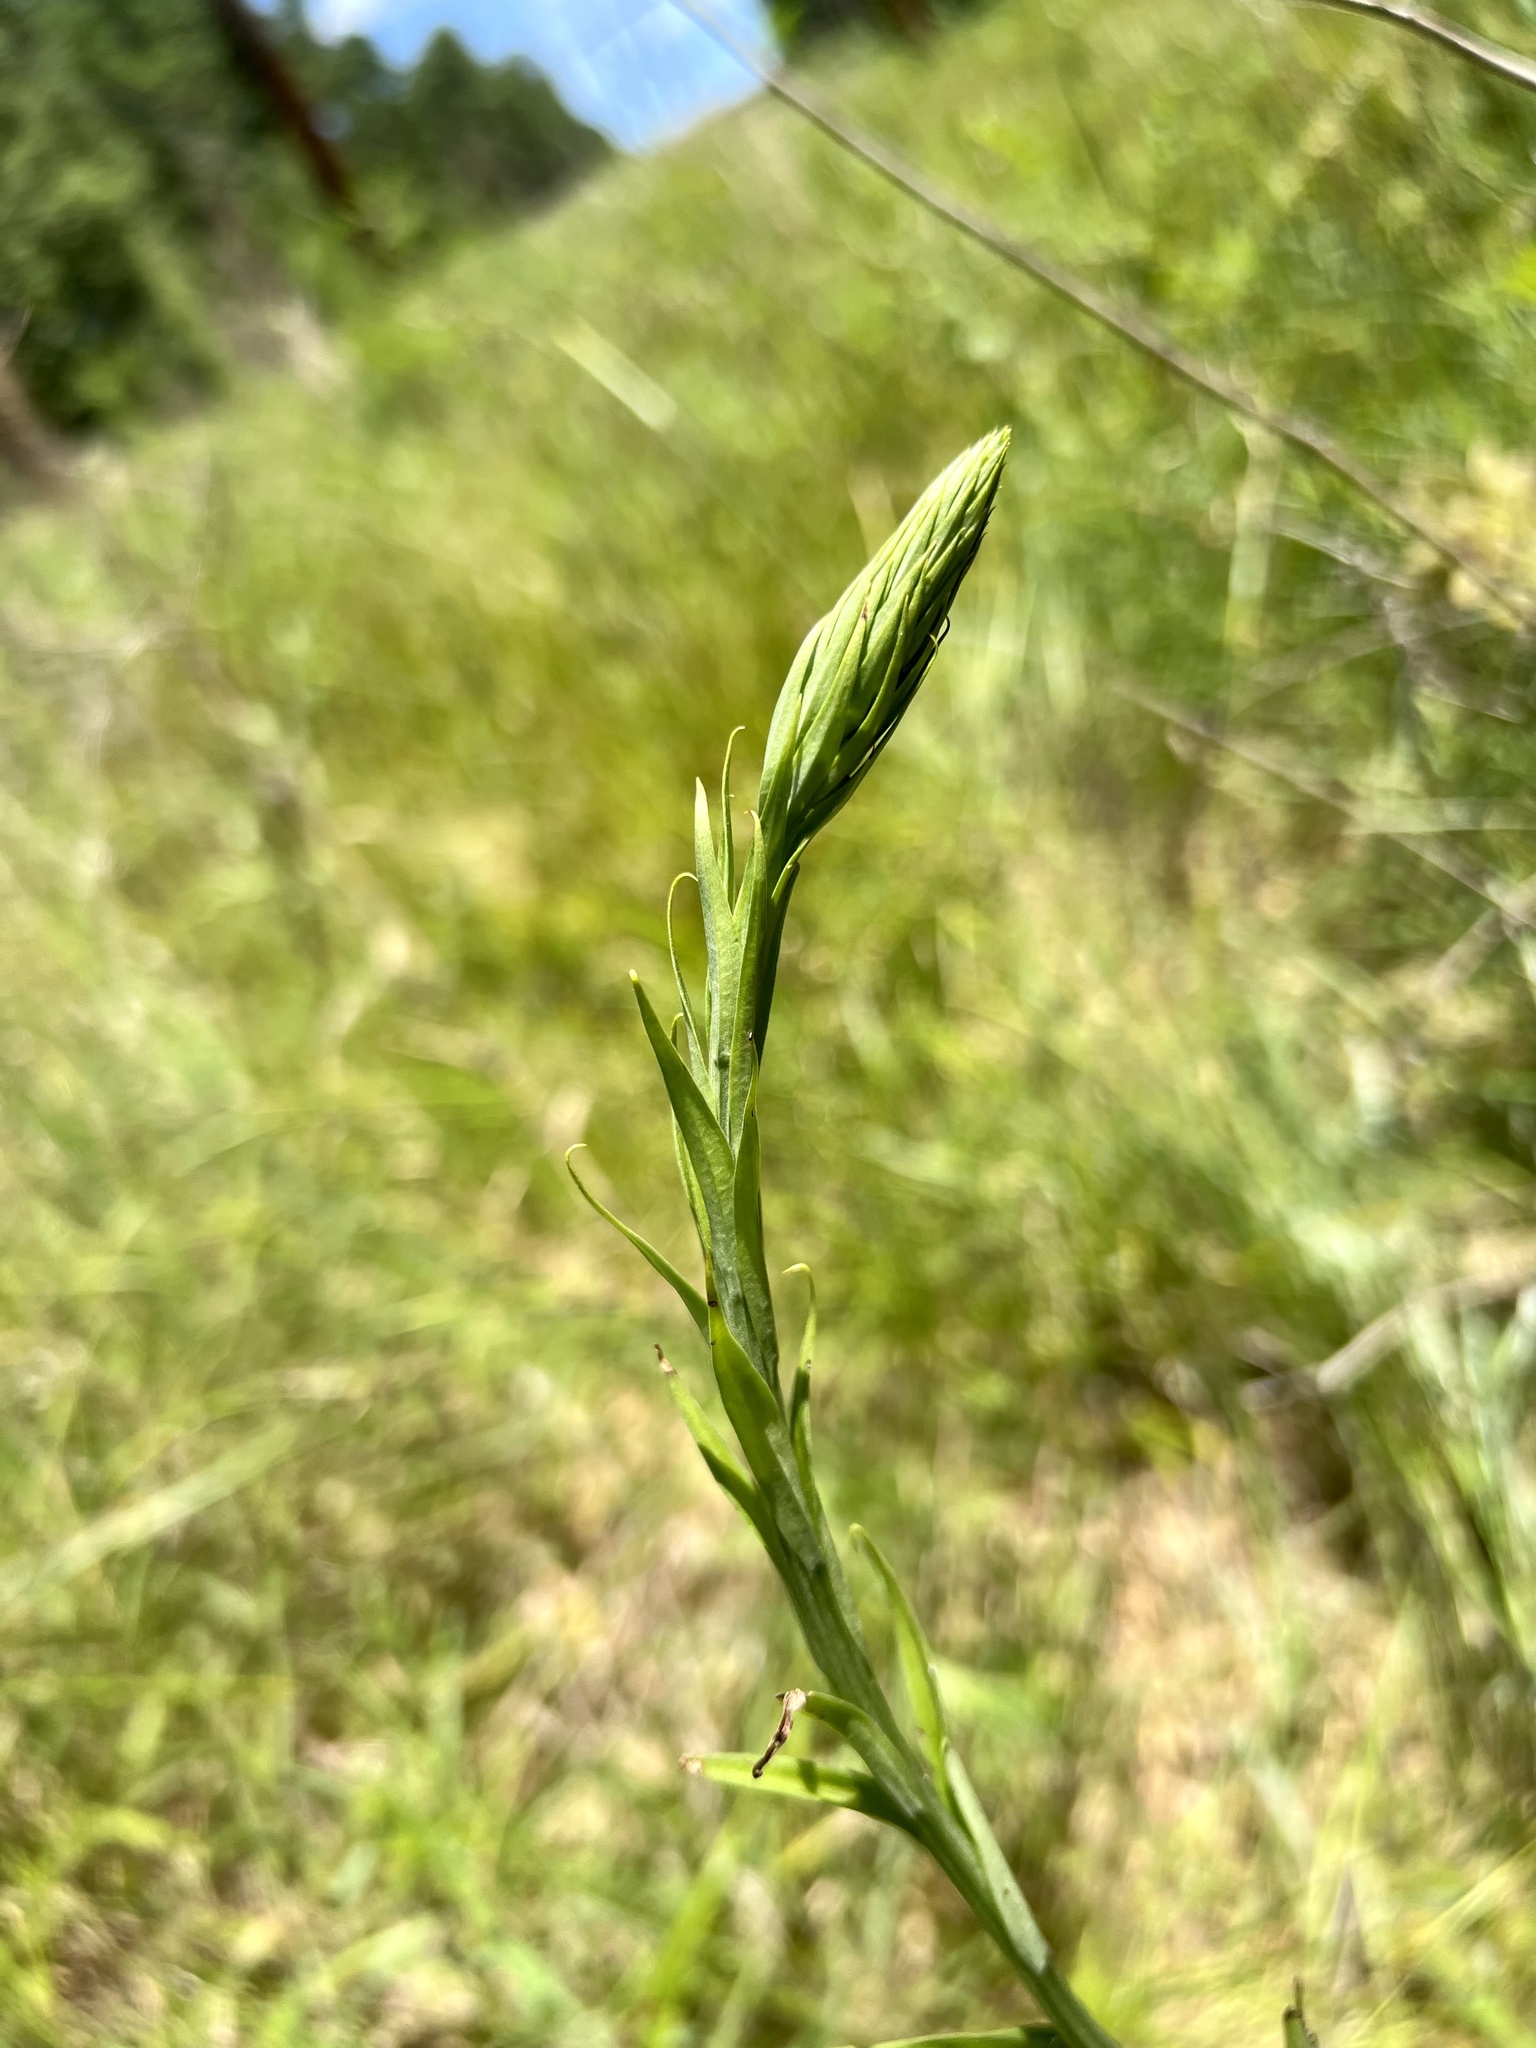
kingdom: Plantae
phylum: Tracheophyta
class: Liliopsida
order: Asparagales
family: Orchidaceae
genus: Platanthera
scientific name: Platanthera ciliaris
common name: Yellow fringed orchid
